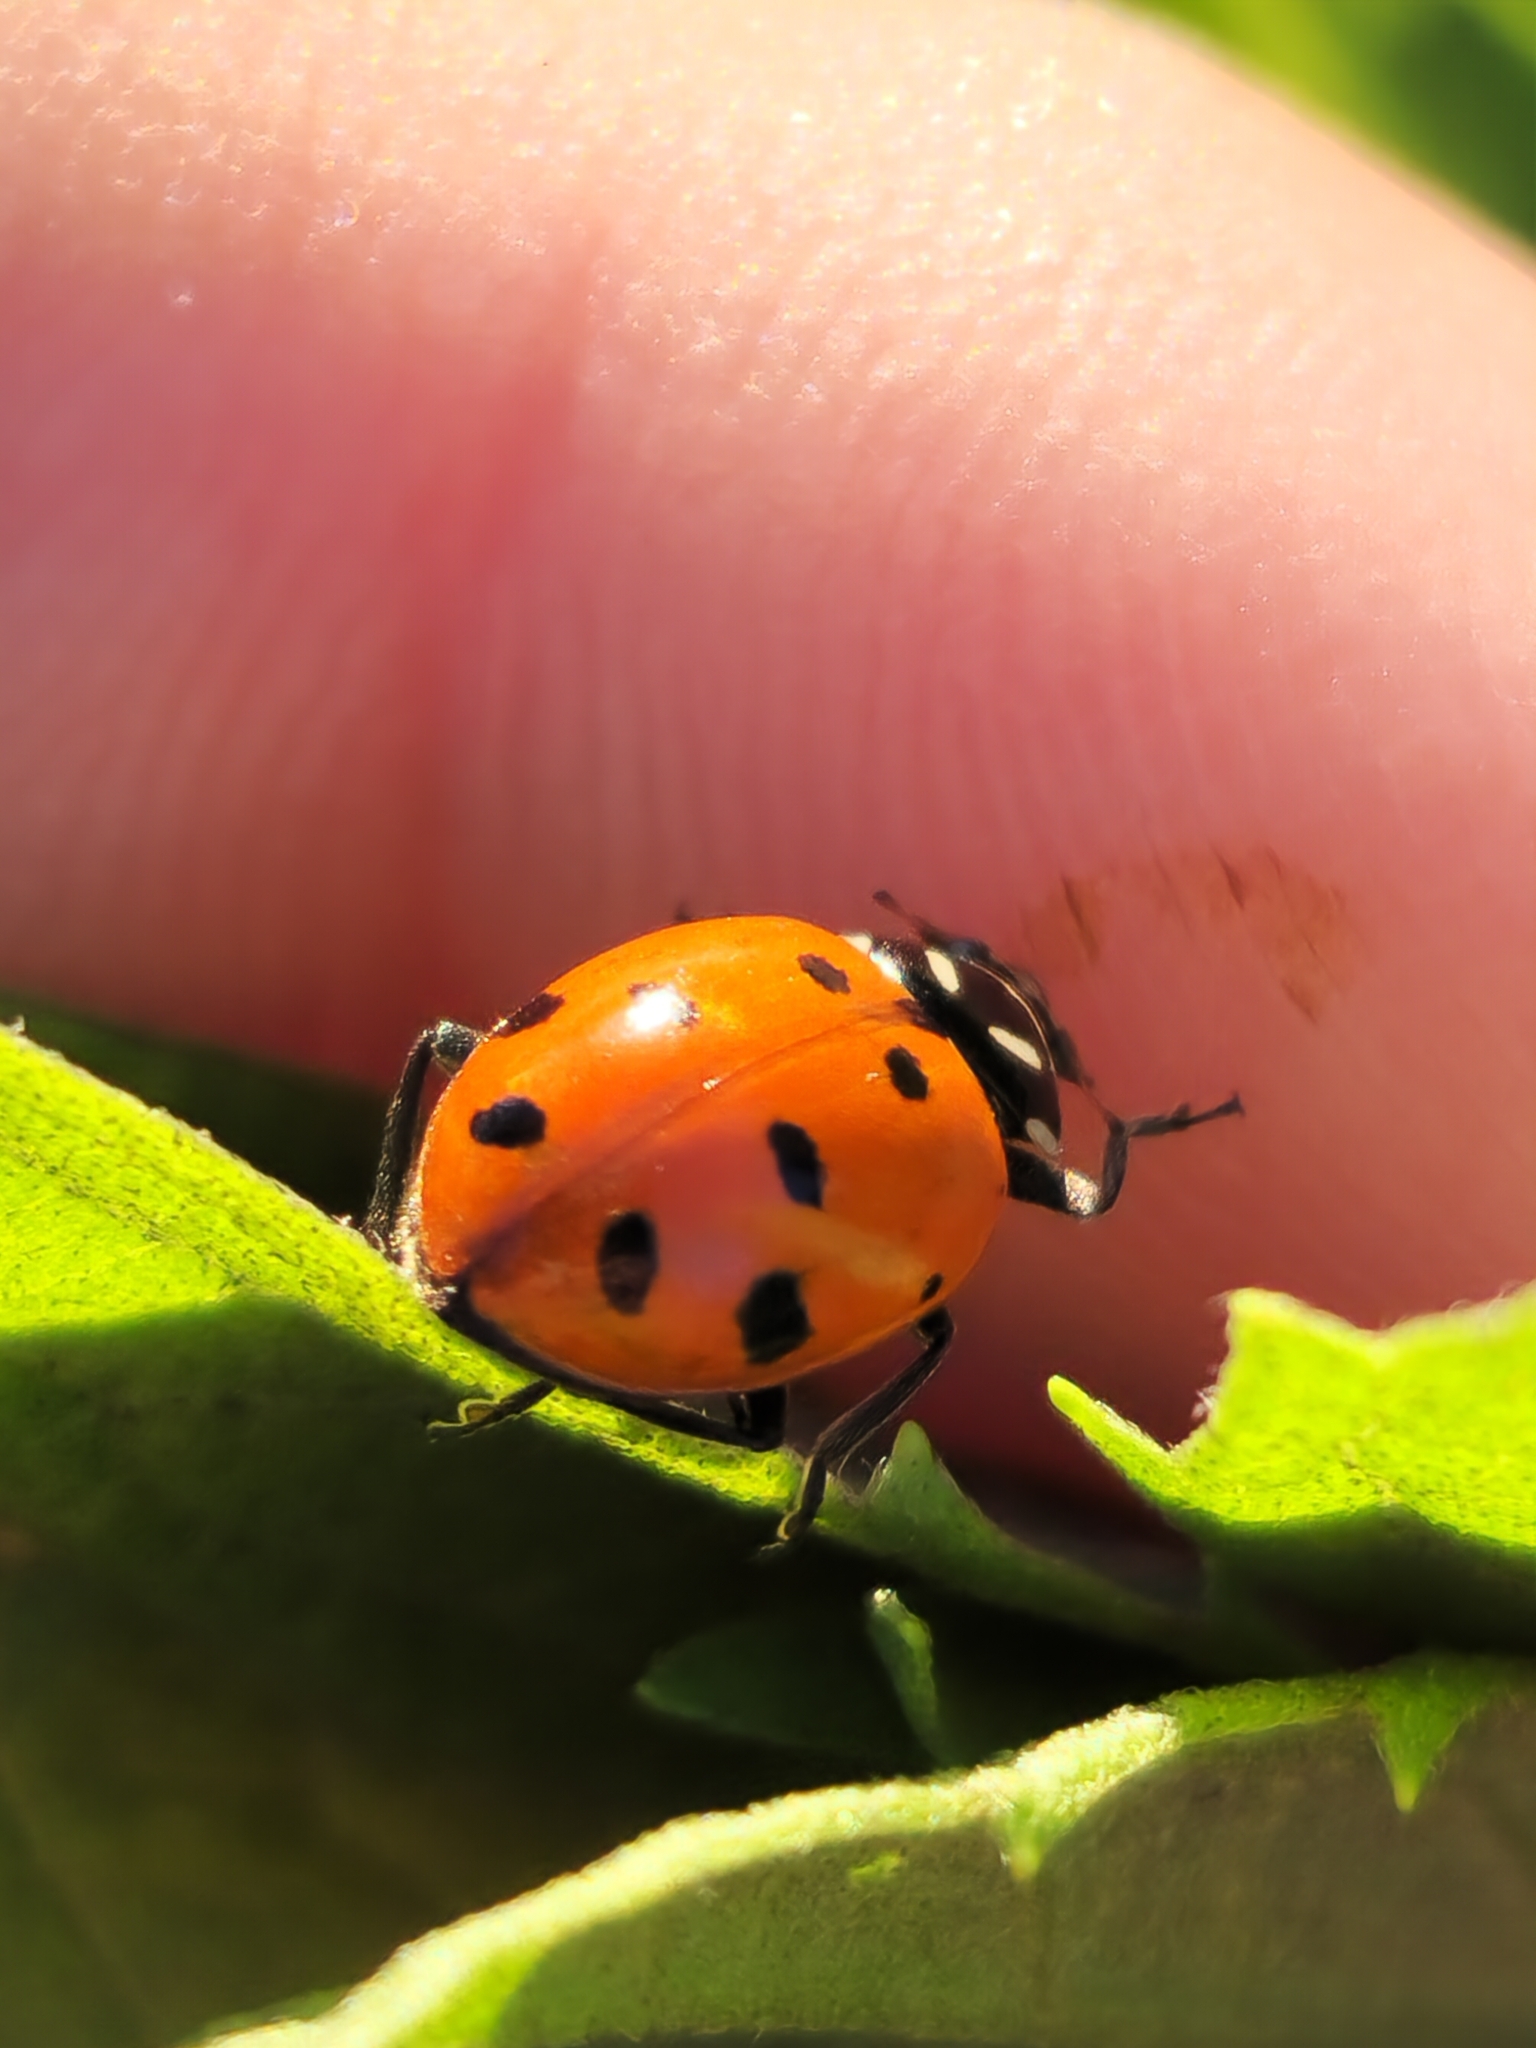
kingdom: Animalia
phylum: Arthropoda
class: Insecta
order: Coleoptera
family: Coccinellidae
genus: Hippodamia
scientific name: Hippodamia convergens
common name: Convergent lady beetle
